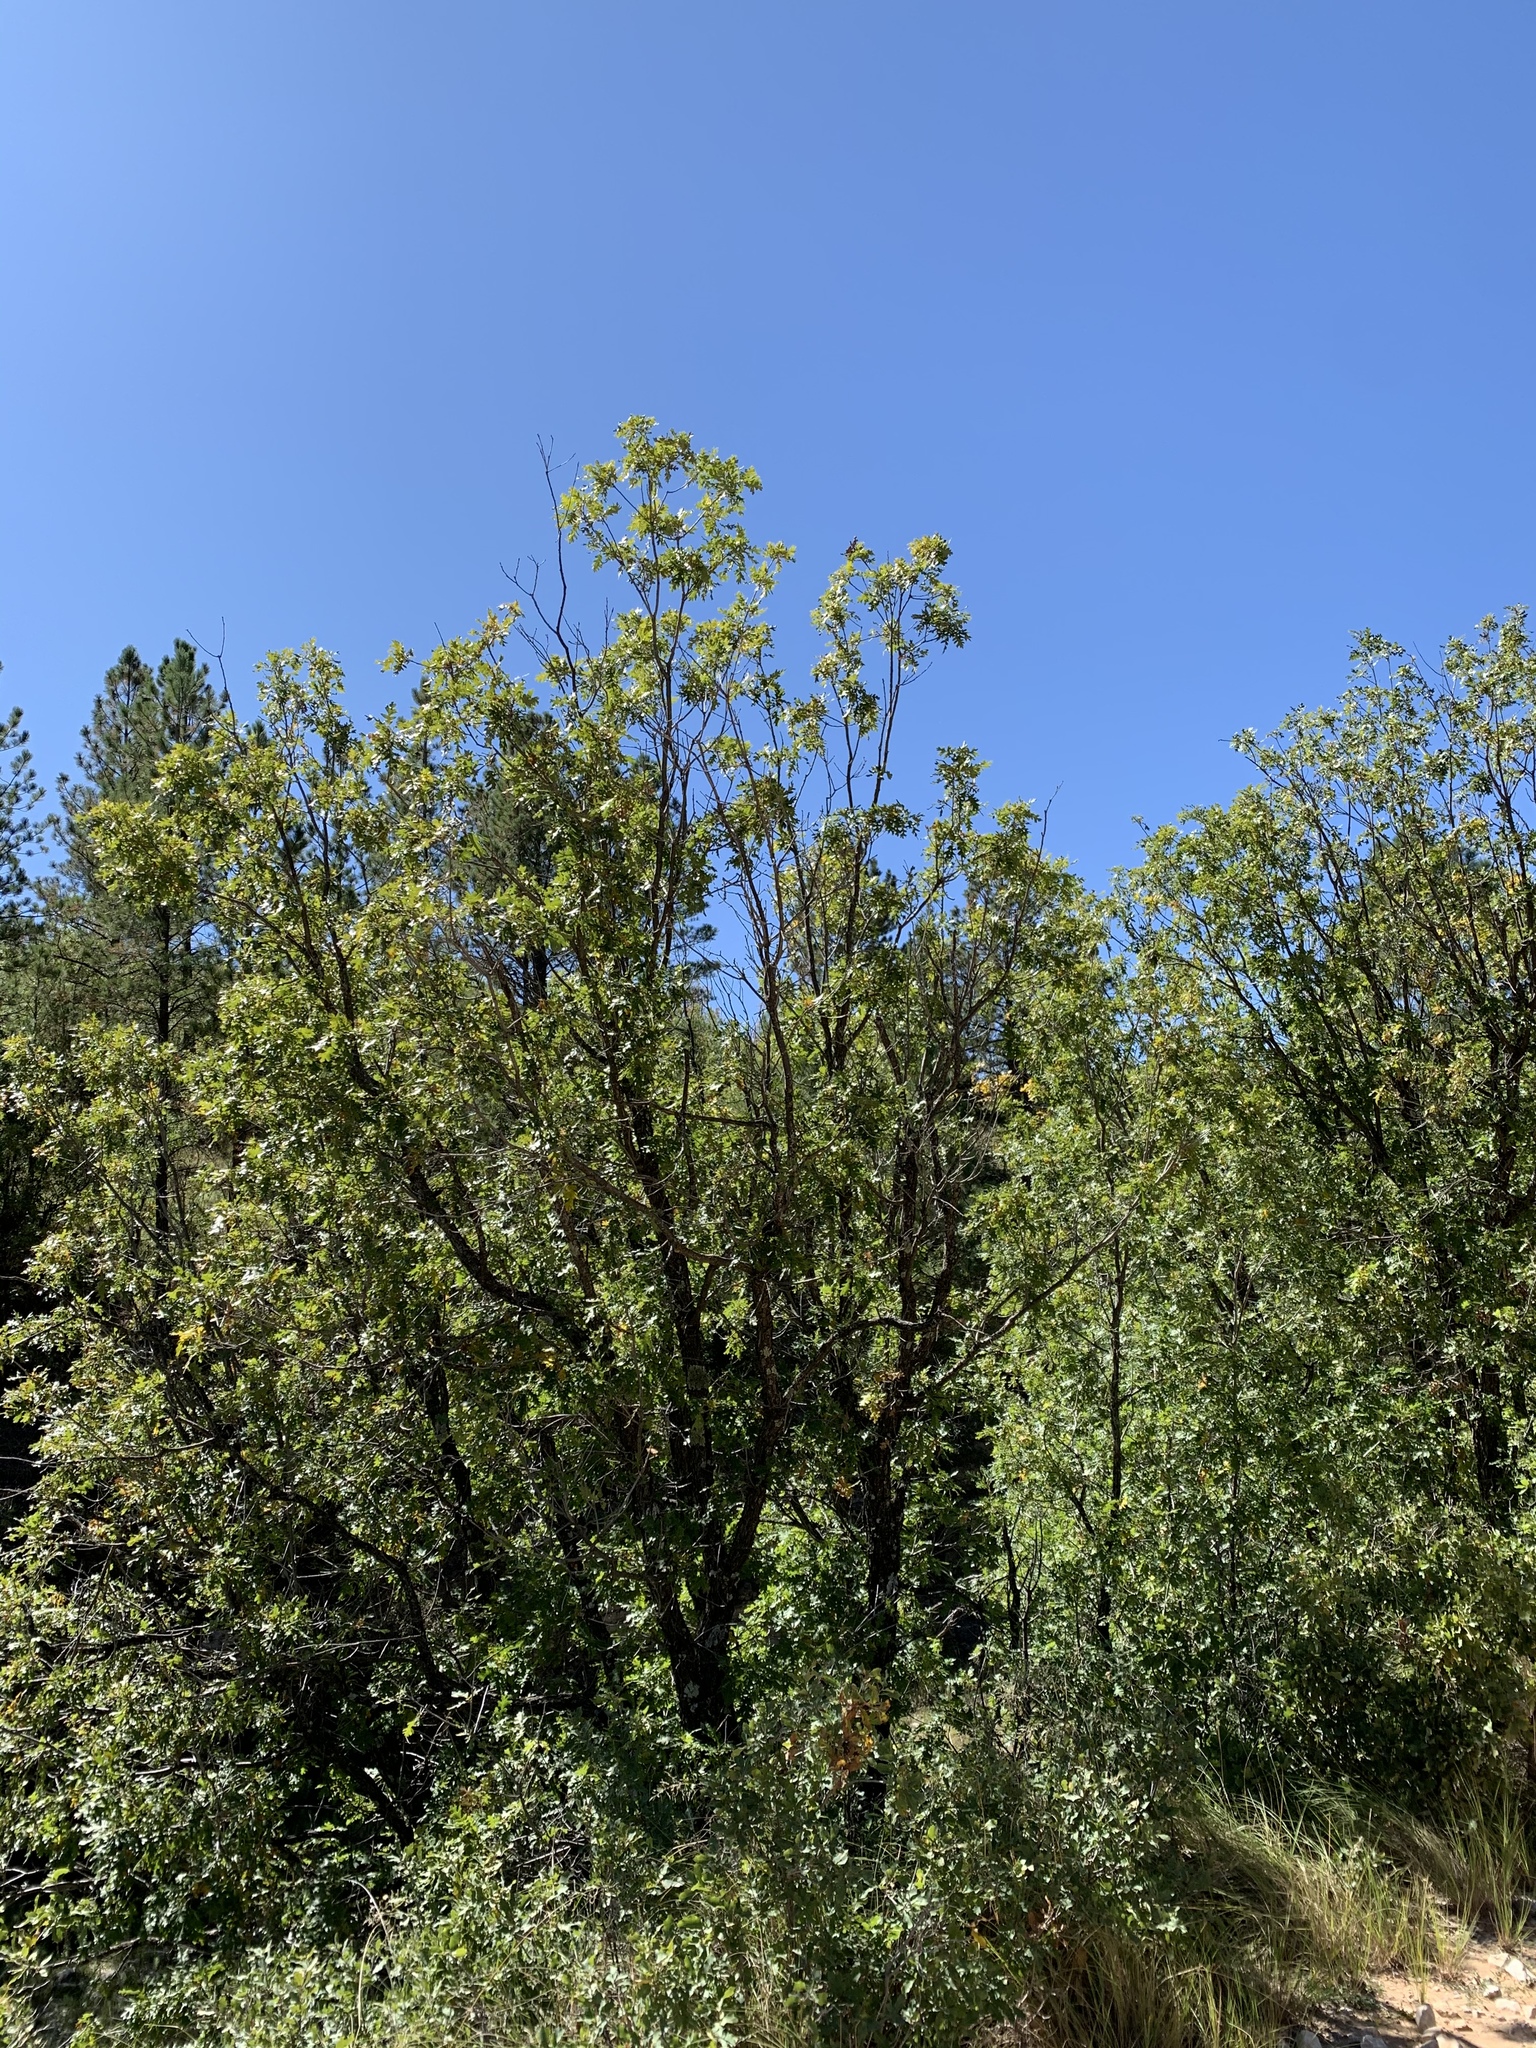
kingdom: Plantae
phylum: Tracheophyta
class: Magnoliopsida
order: Fagales
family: Fagaceae
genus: Quercus
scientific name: Quercus gambelii
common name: Gambel oak
